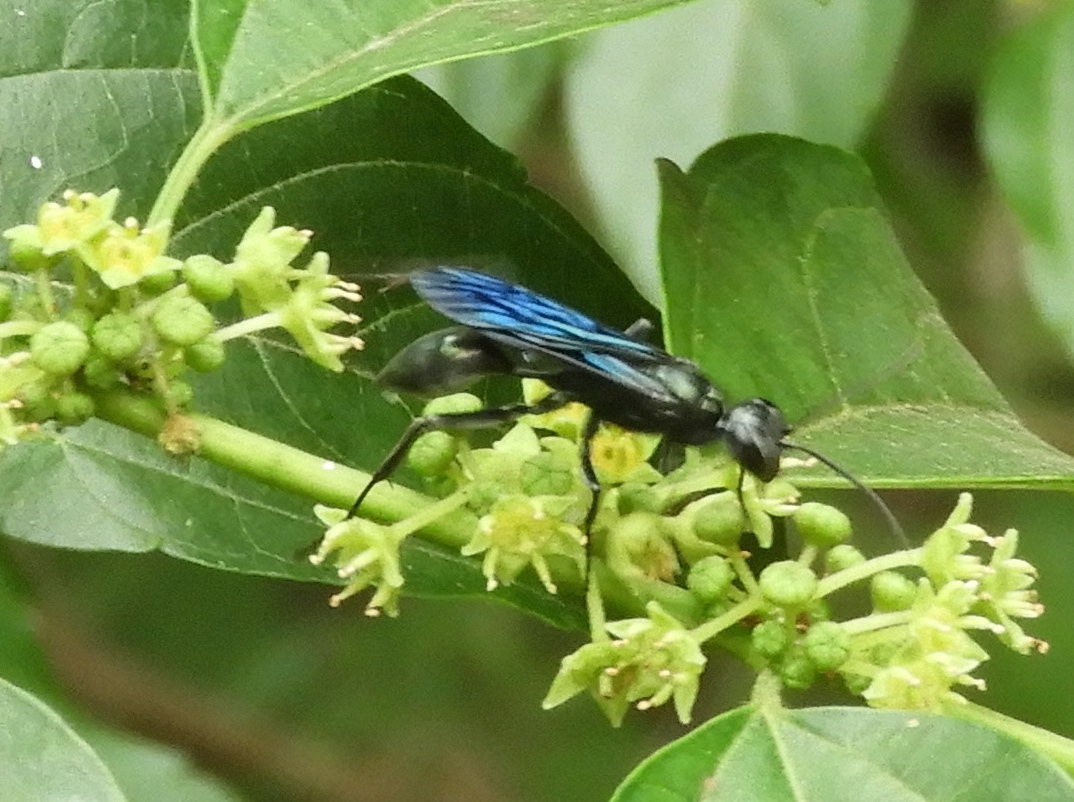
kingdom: Animalia
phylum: Arthropoda
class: Insecta
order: Hymenoptera
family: Sphecidae
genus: Chalybion
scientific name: Chalybion
